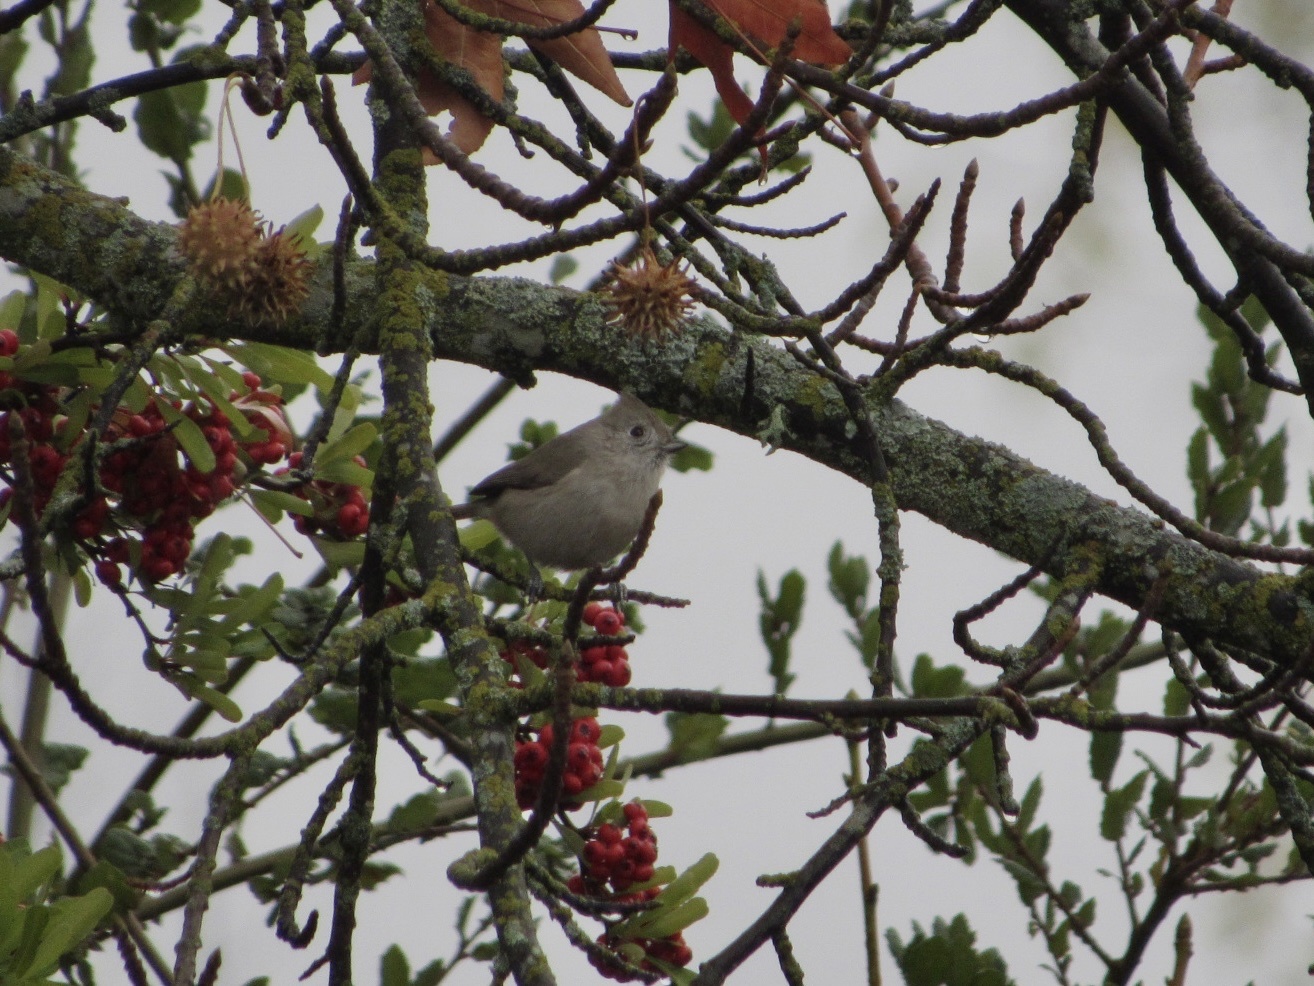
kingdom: Animalia
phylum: Chordata
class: Aves
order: Passeriformes
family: Paridae
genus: Baeolophus
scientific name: Baeolophus inornatus
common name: Oak titmouse
